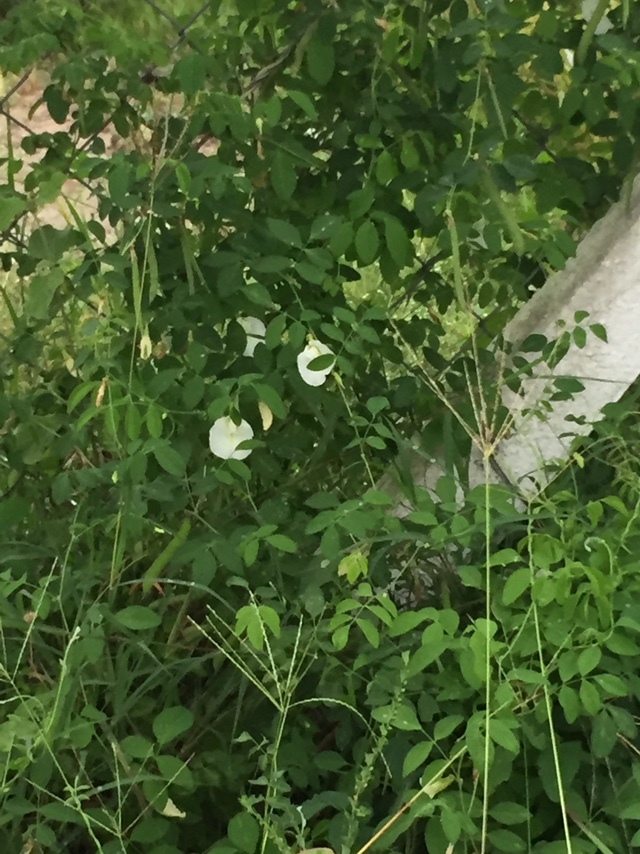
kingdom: Plantae
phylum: Tracheophyta
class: Magnoliopsida
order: Fabales
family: Fabaceae
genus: Clitoria
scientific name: Clitoria ternatea
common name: Asian pigeonwings
